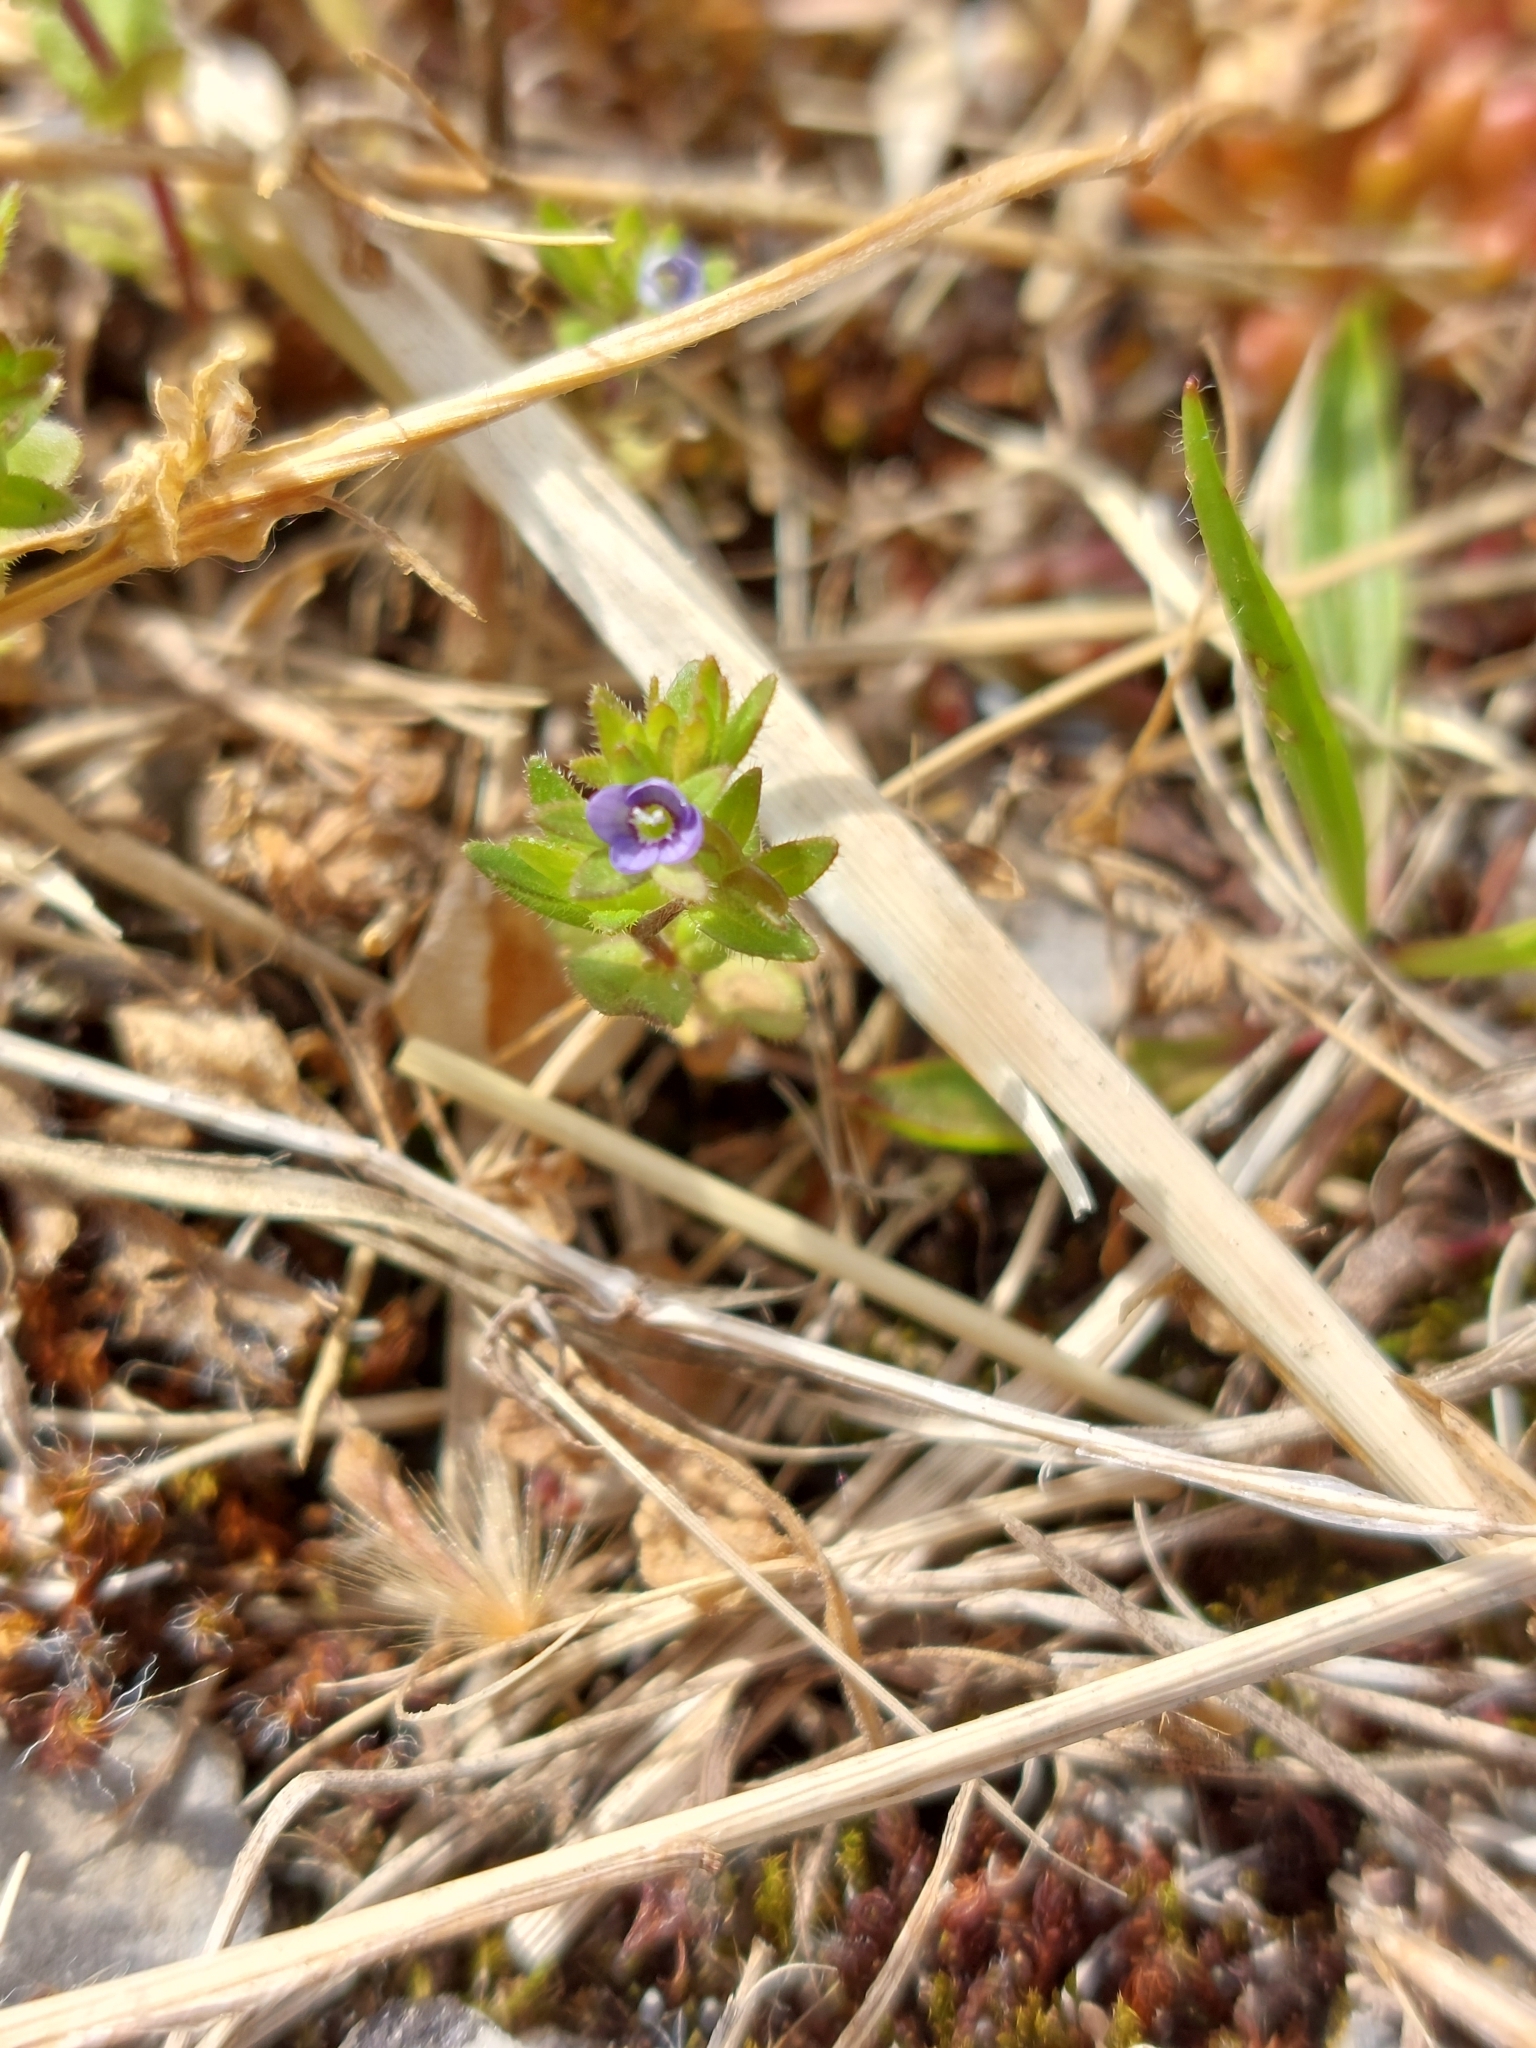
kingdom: Plantae
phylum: Tracheophyta
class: Magnoliopsida
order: Lamiales
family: Plantaginaceae
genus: Veronica
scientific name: Veronica arvensis
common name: Corn speedwell
